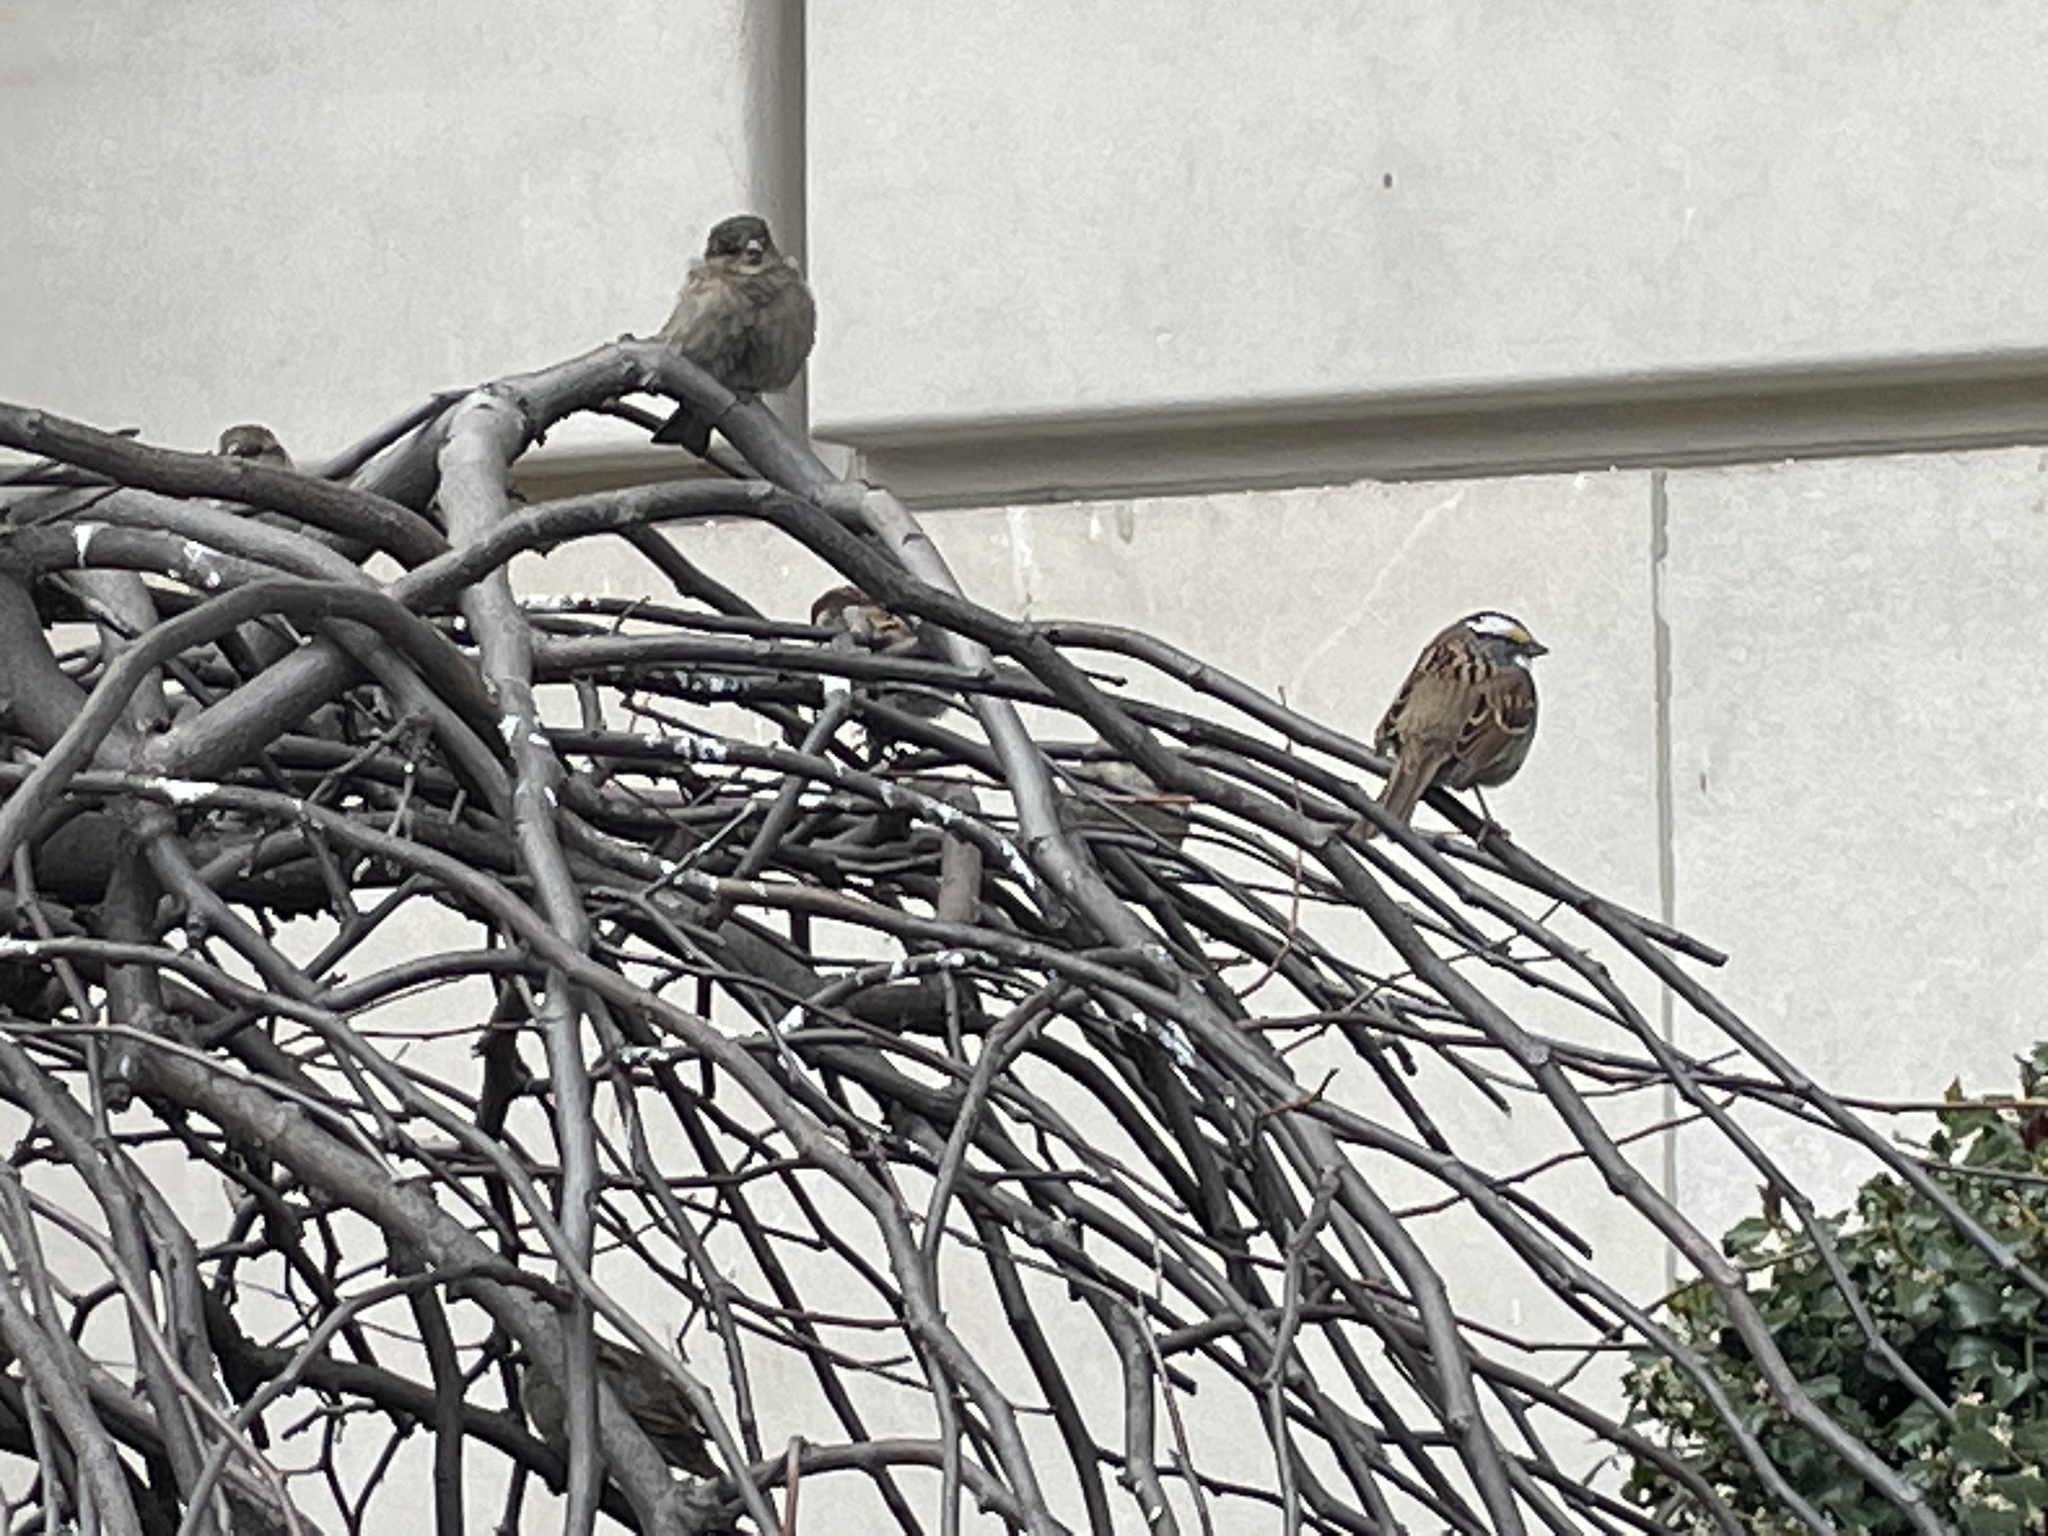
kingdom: Animalia
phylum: Chordata
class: Aves
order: Passeriformes
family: Passeridae
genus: Passer
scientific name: Passer domesticus
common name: House sparrow
